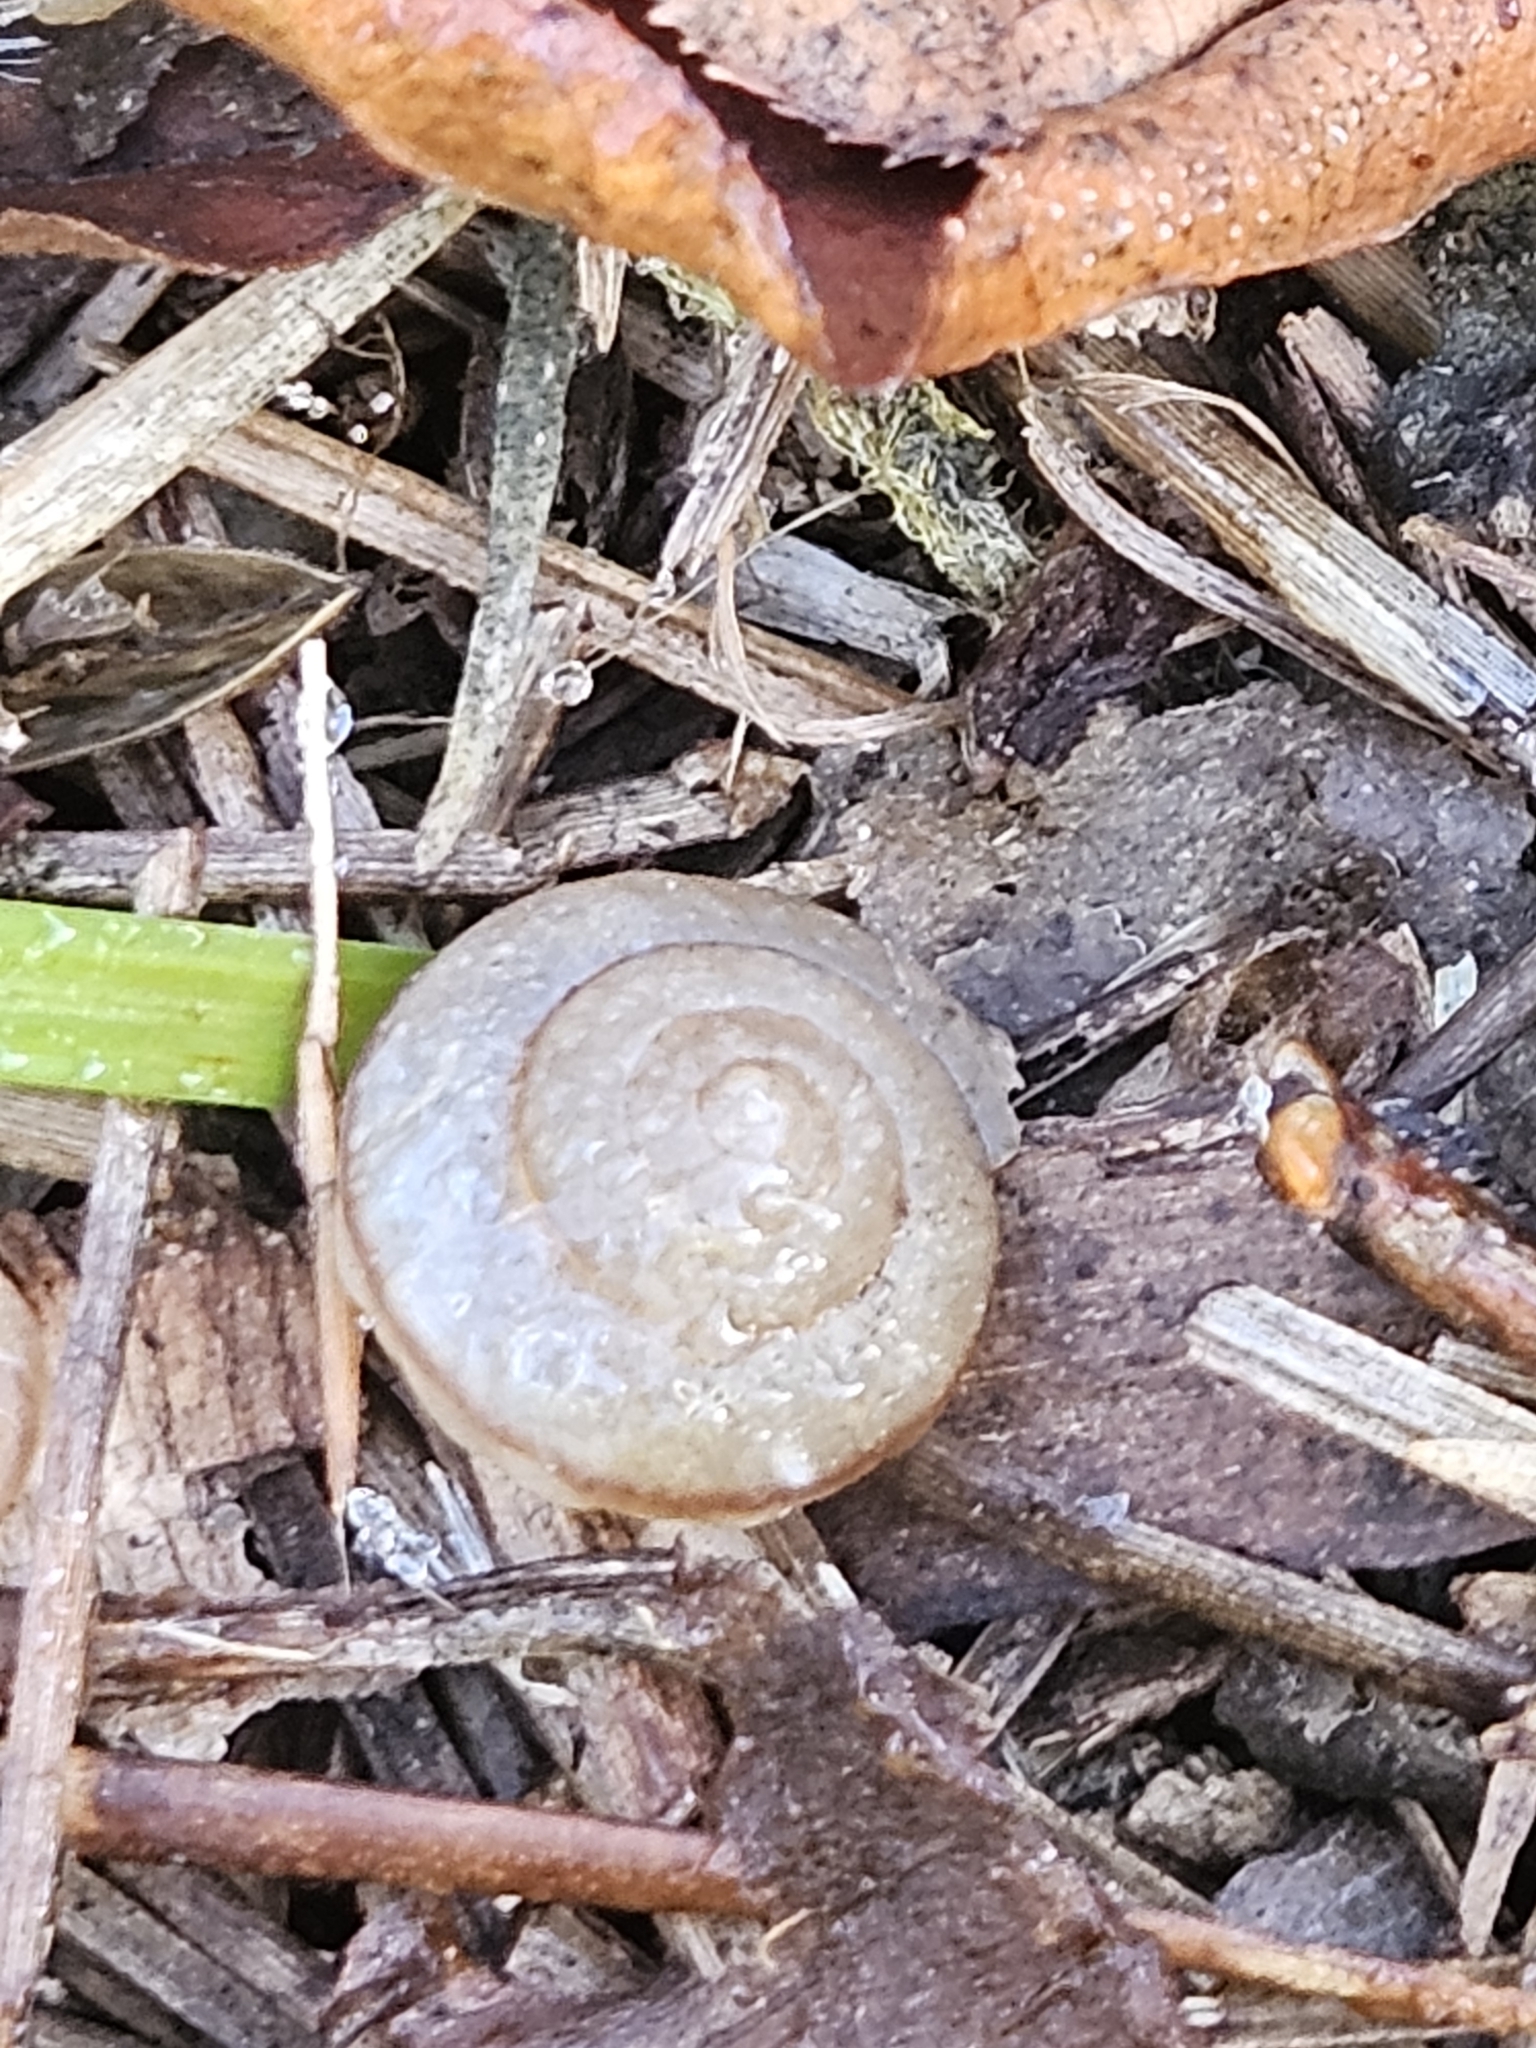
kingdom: Animalia
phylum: Mollusca
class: Gastropoda
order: Stylommatophora
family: Camaenidae
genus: Bradybaena
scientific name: Bradybaena similaris
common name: Asian trampsnail
